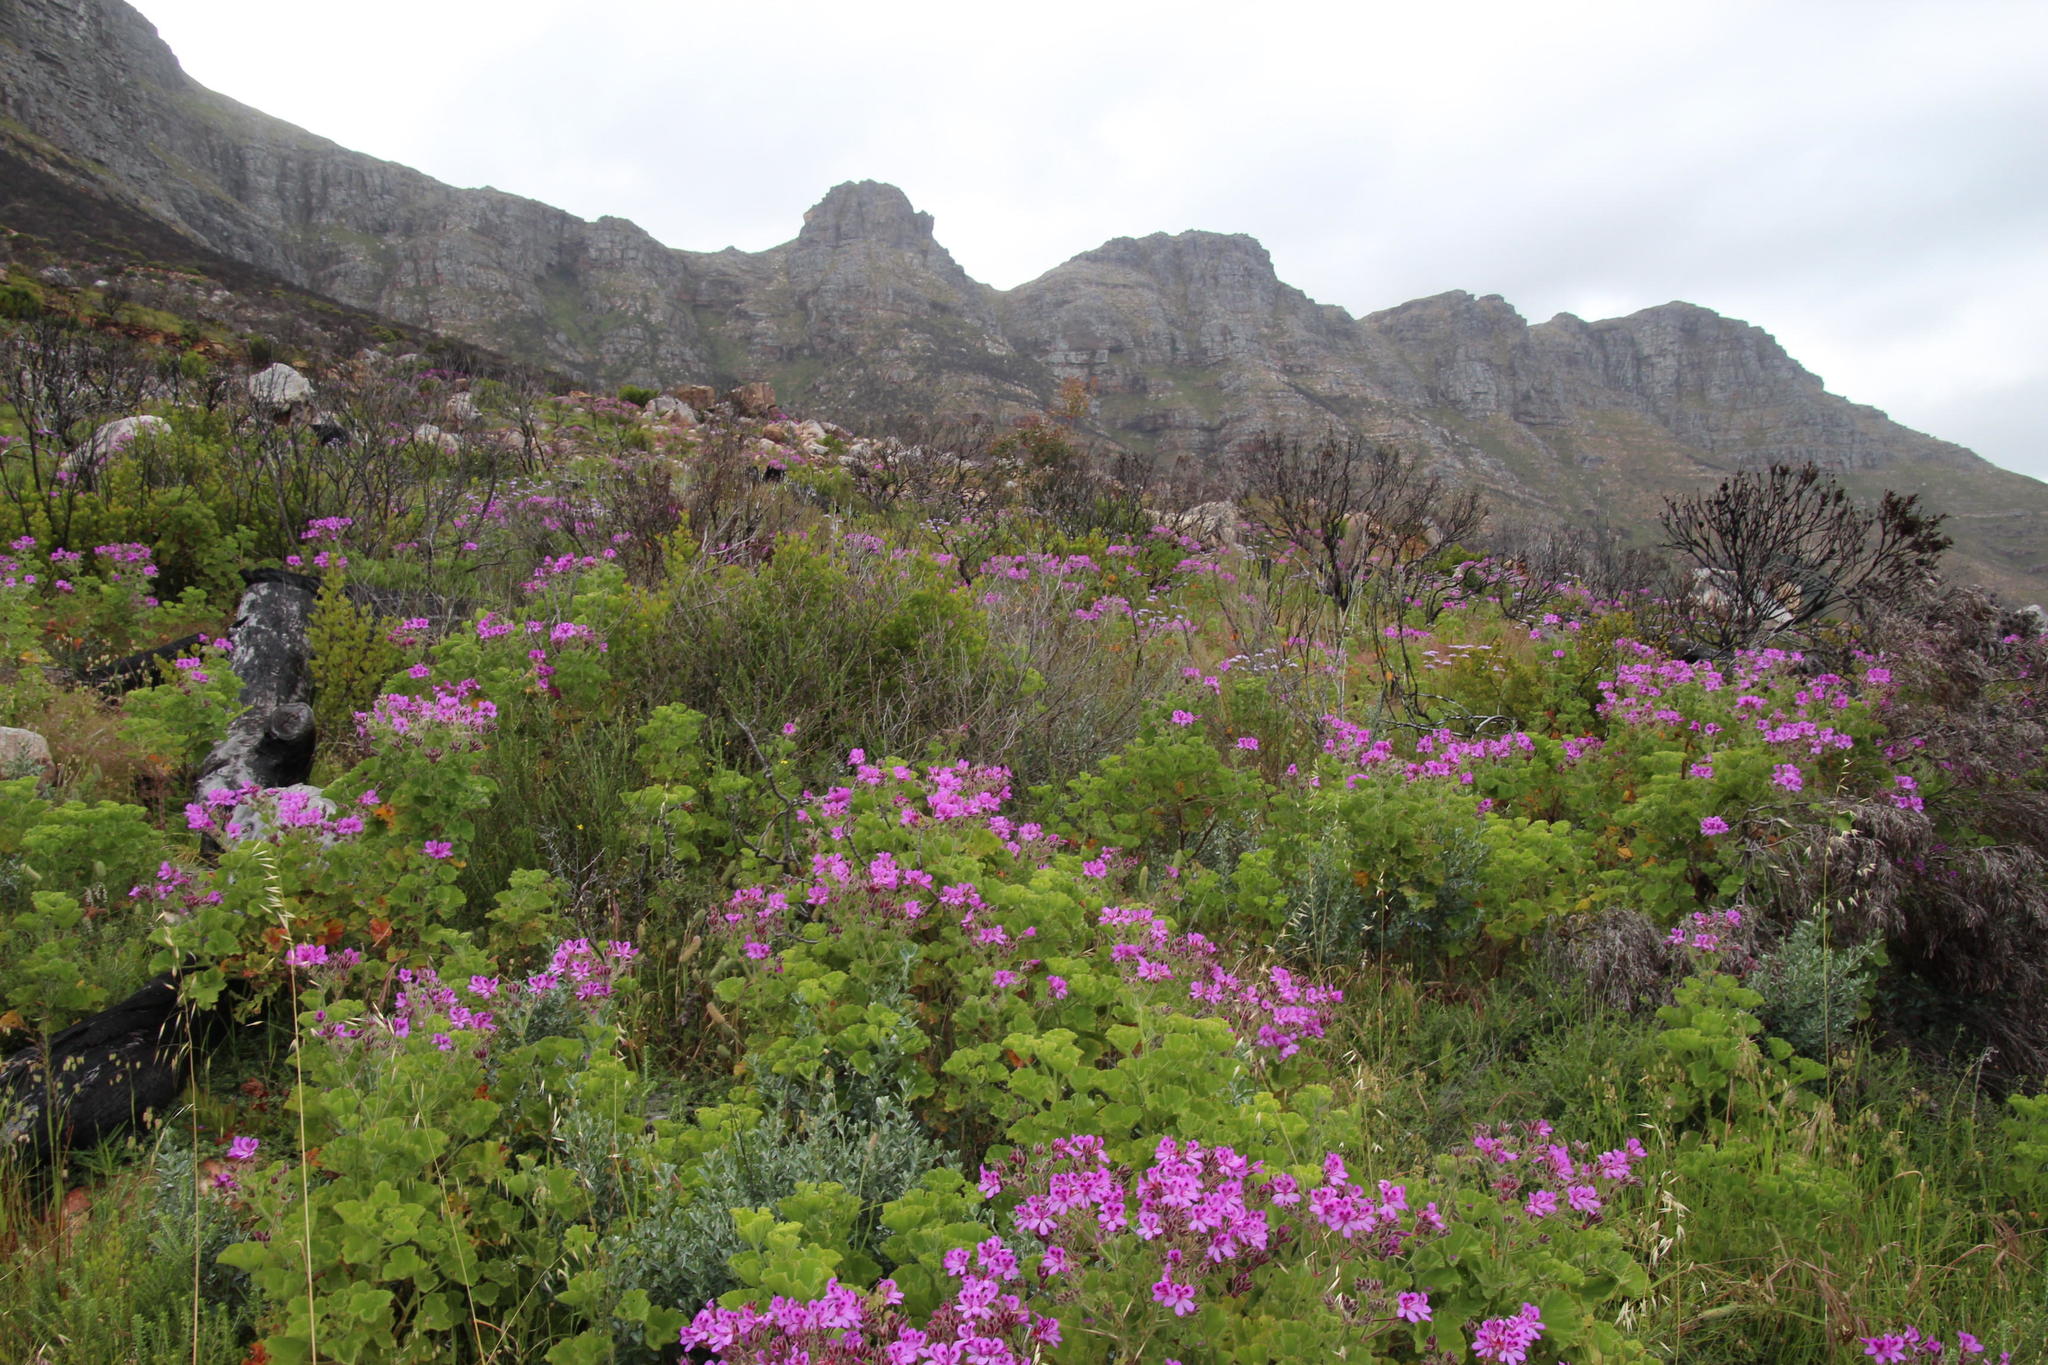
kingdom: Plantae
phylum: Tracheophyta
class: Magnoliopsida
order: Geraniales
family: Geraniaceae
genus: Pelargonium
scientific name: Pelargonium cucullatum
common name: Tree pelargonium
